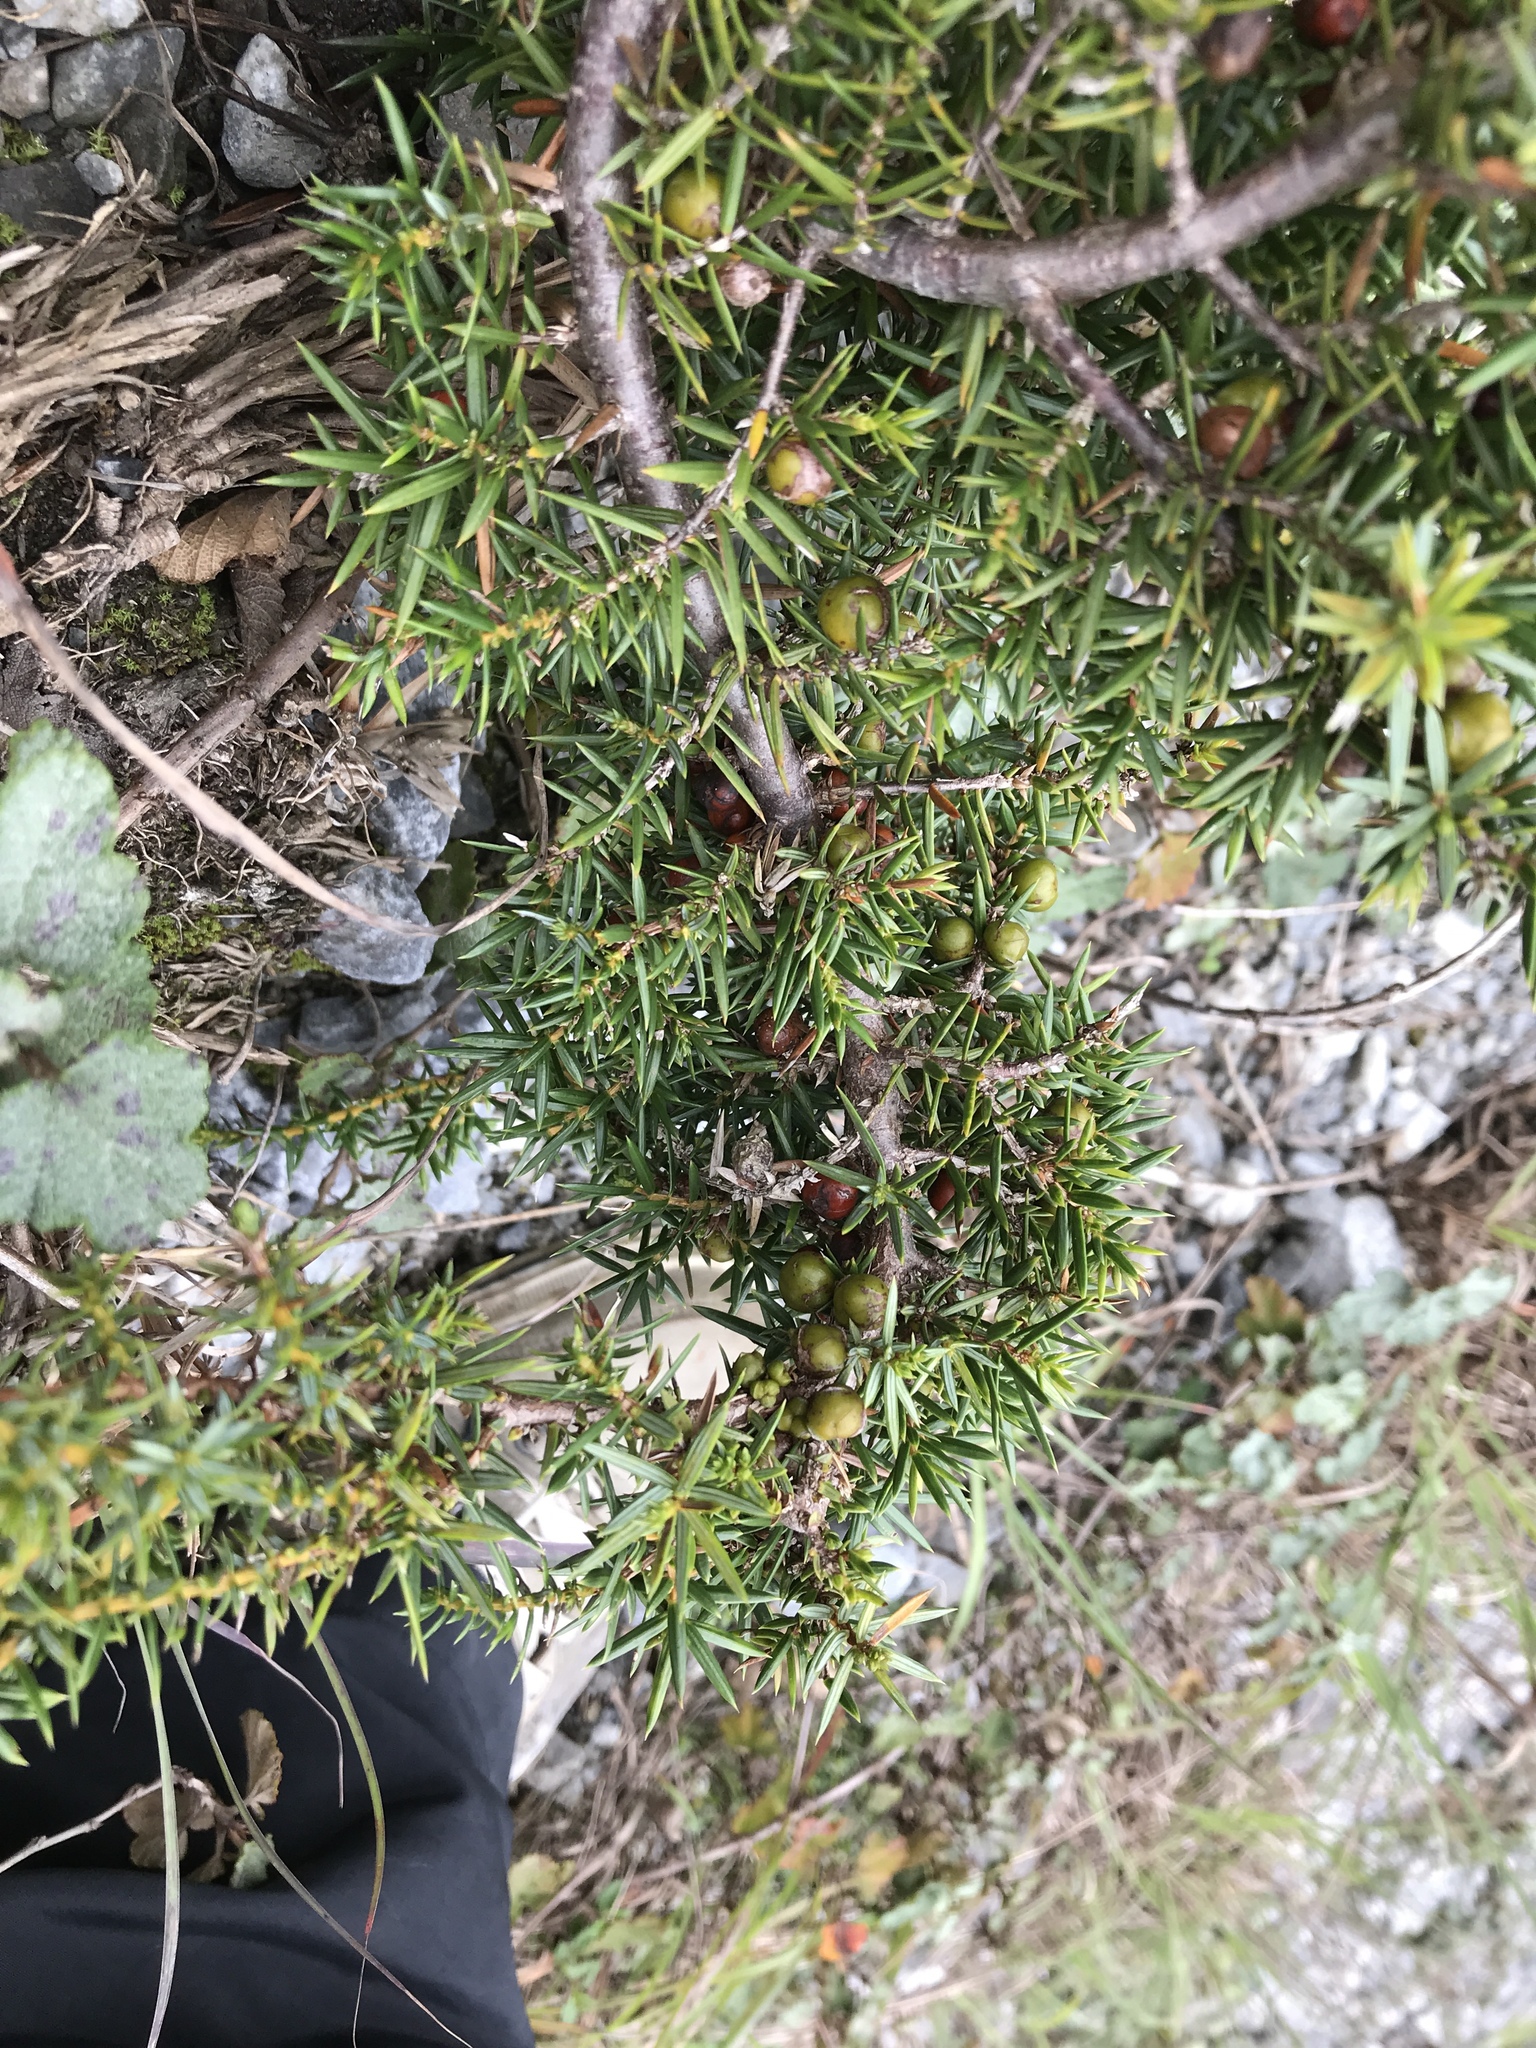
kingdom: Plantae
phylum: Tracheophyta
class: Pinopsida
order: Pinales
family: Cupressaceae
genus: Juniperus
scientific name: Juniperus formosana
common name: Formosan juniper
